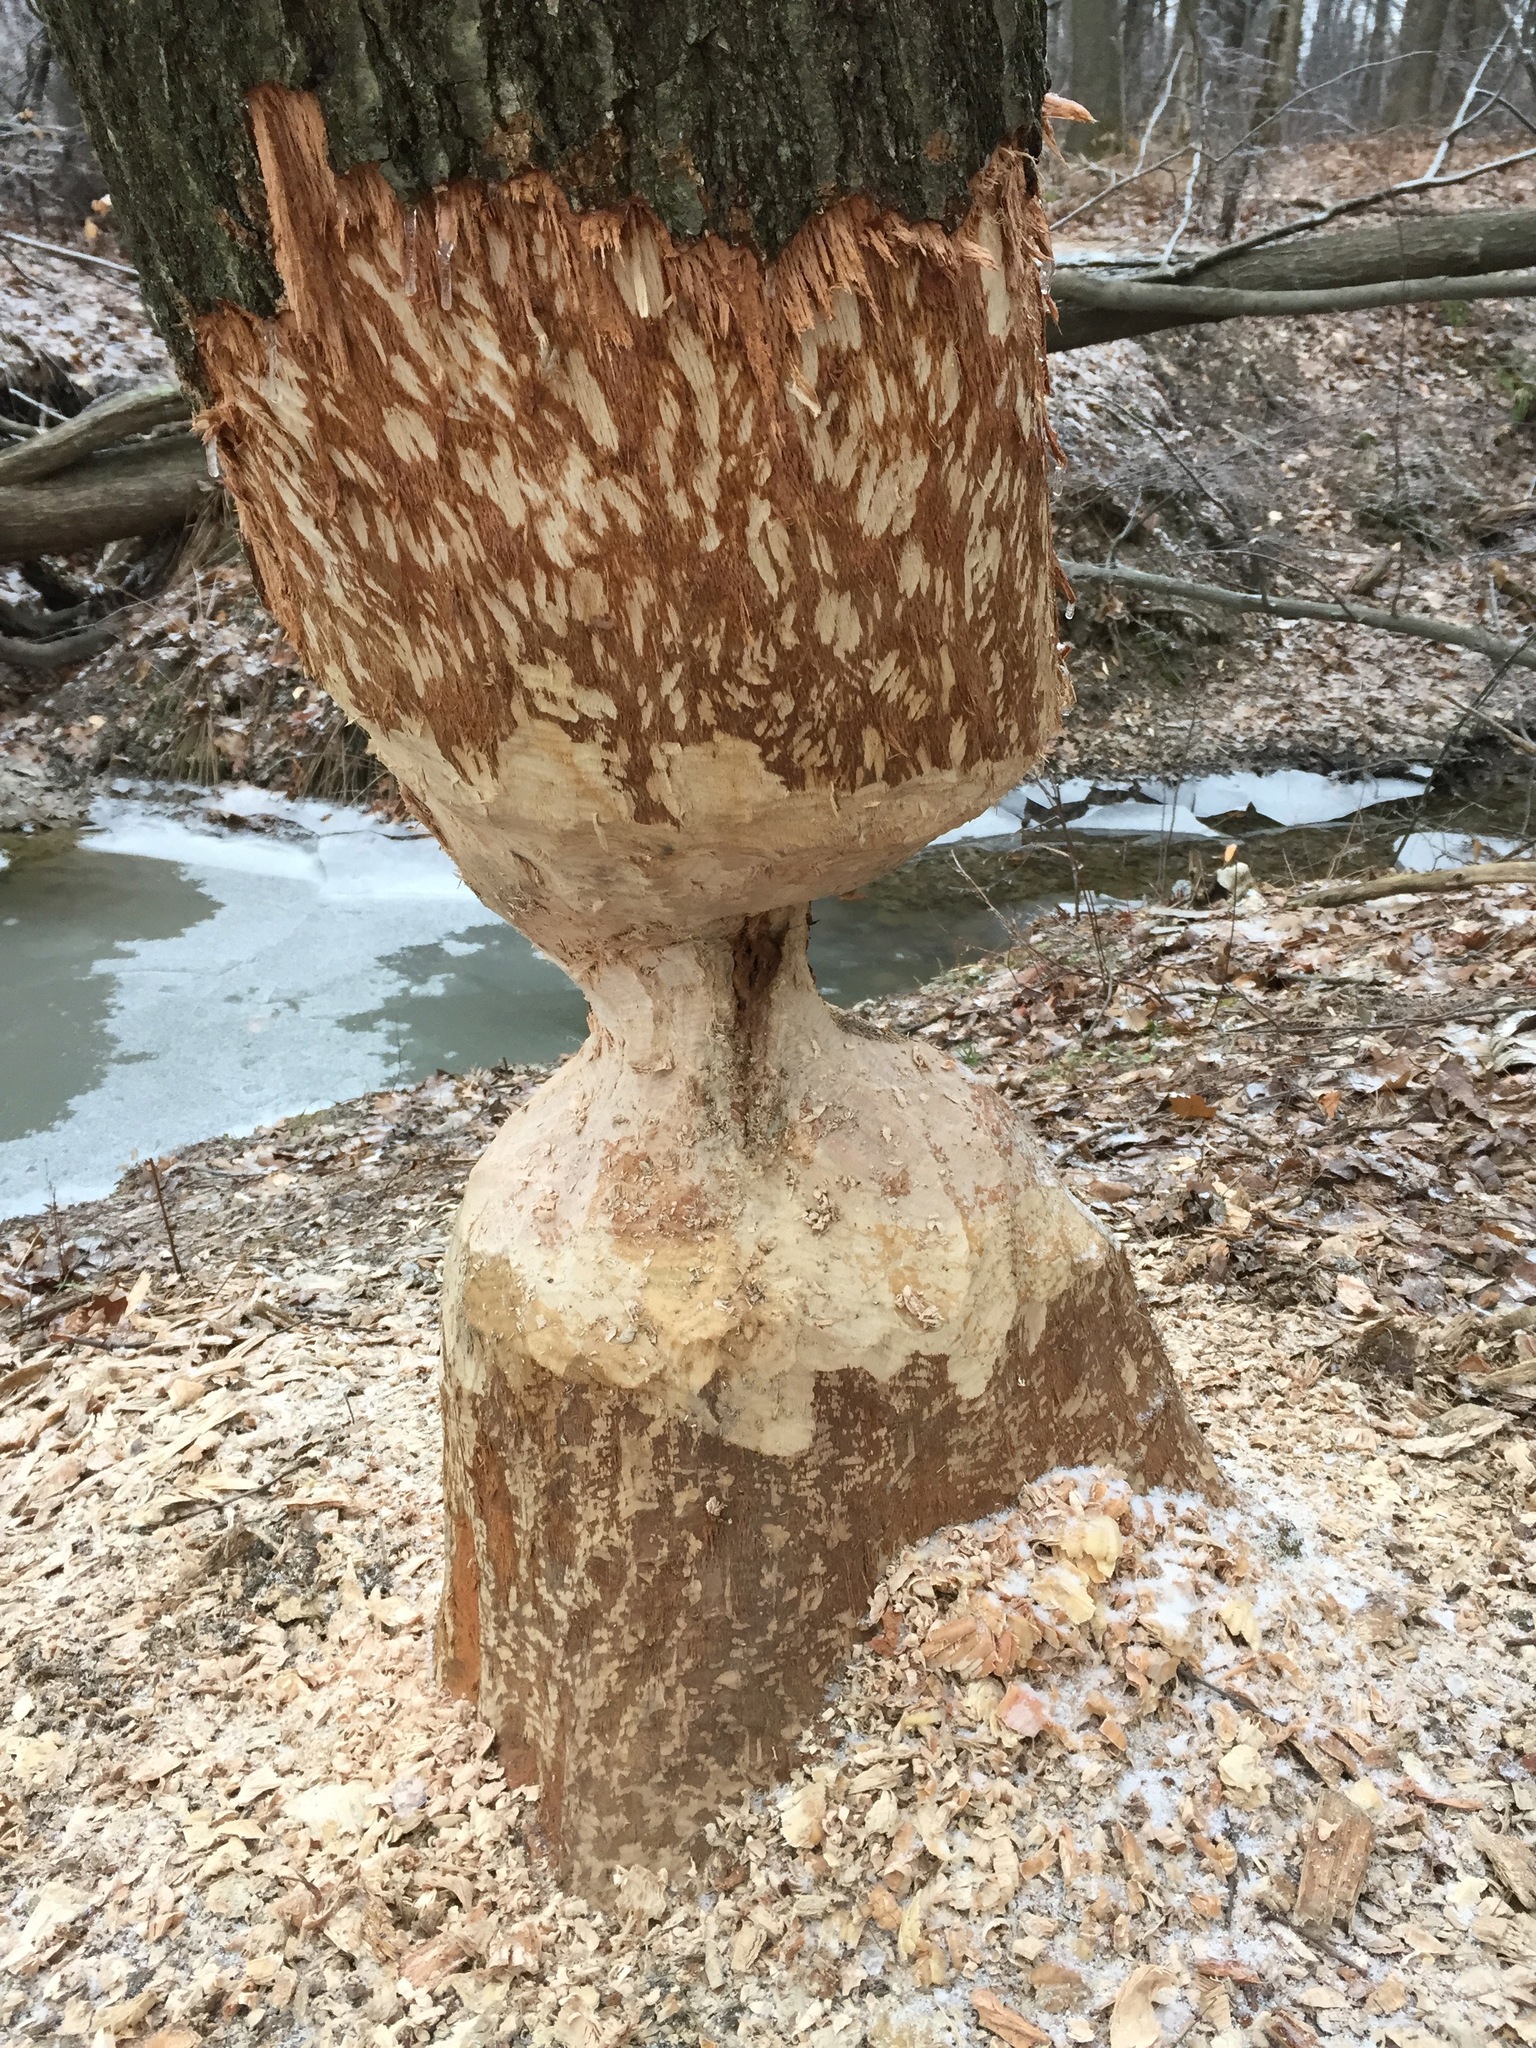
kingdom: Animalia
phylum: Chordata
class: Mammalia
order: Rodentia
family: Castoridae
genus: Castor
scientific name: Castor canadensis
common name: American beaver
